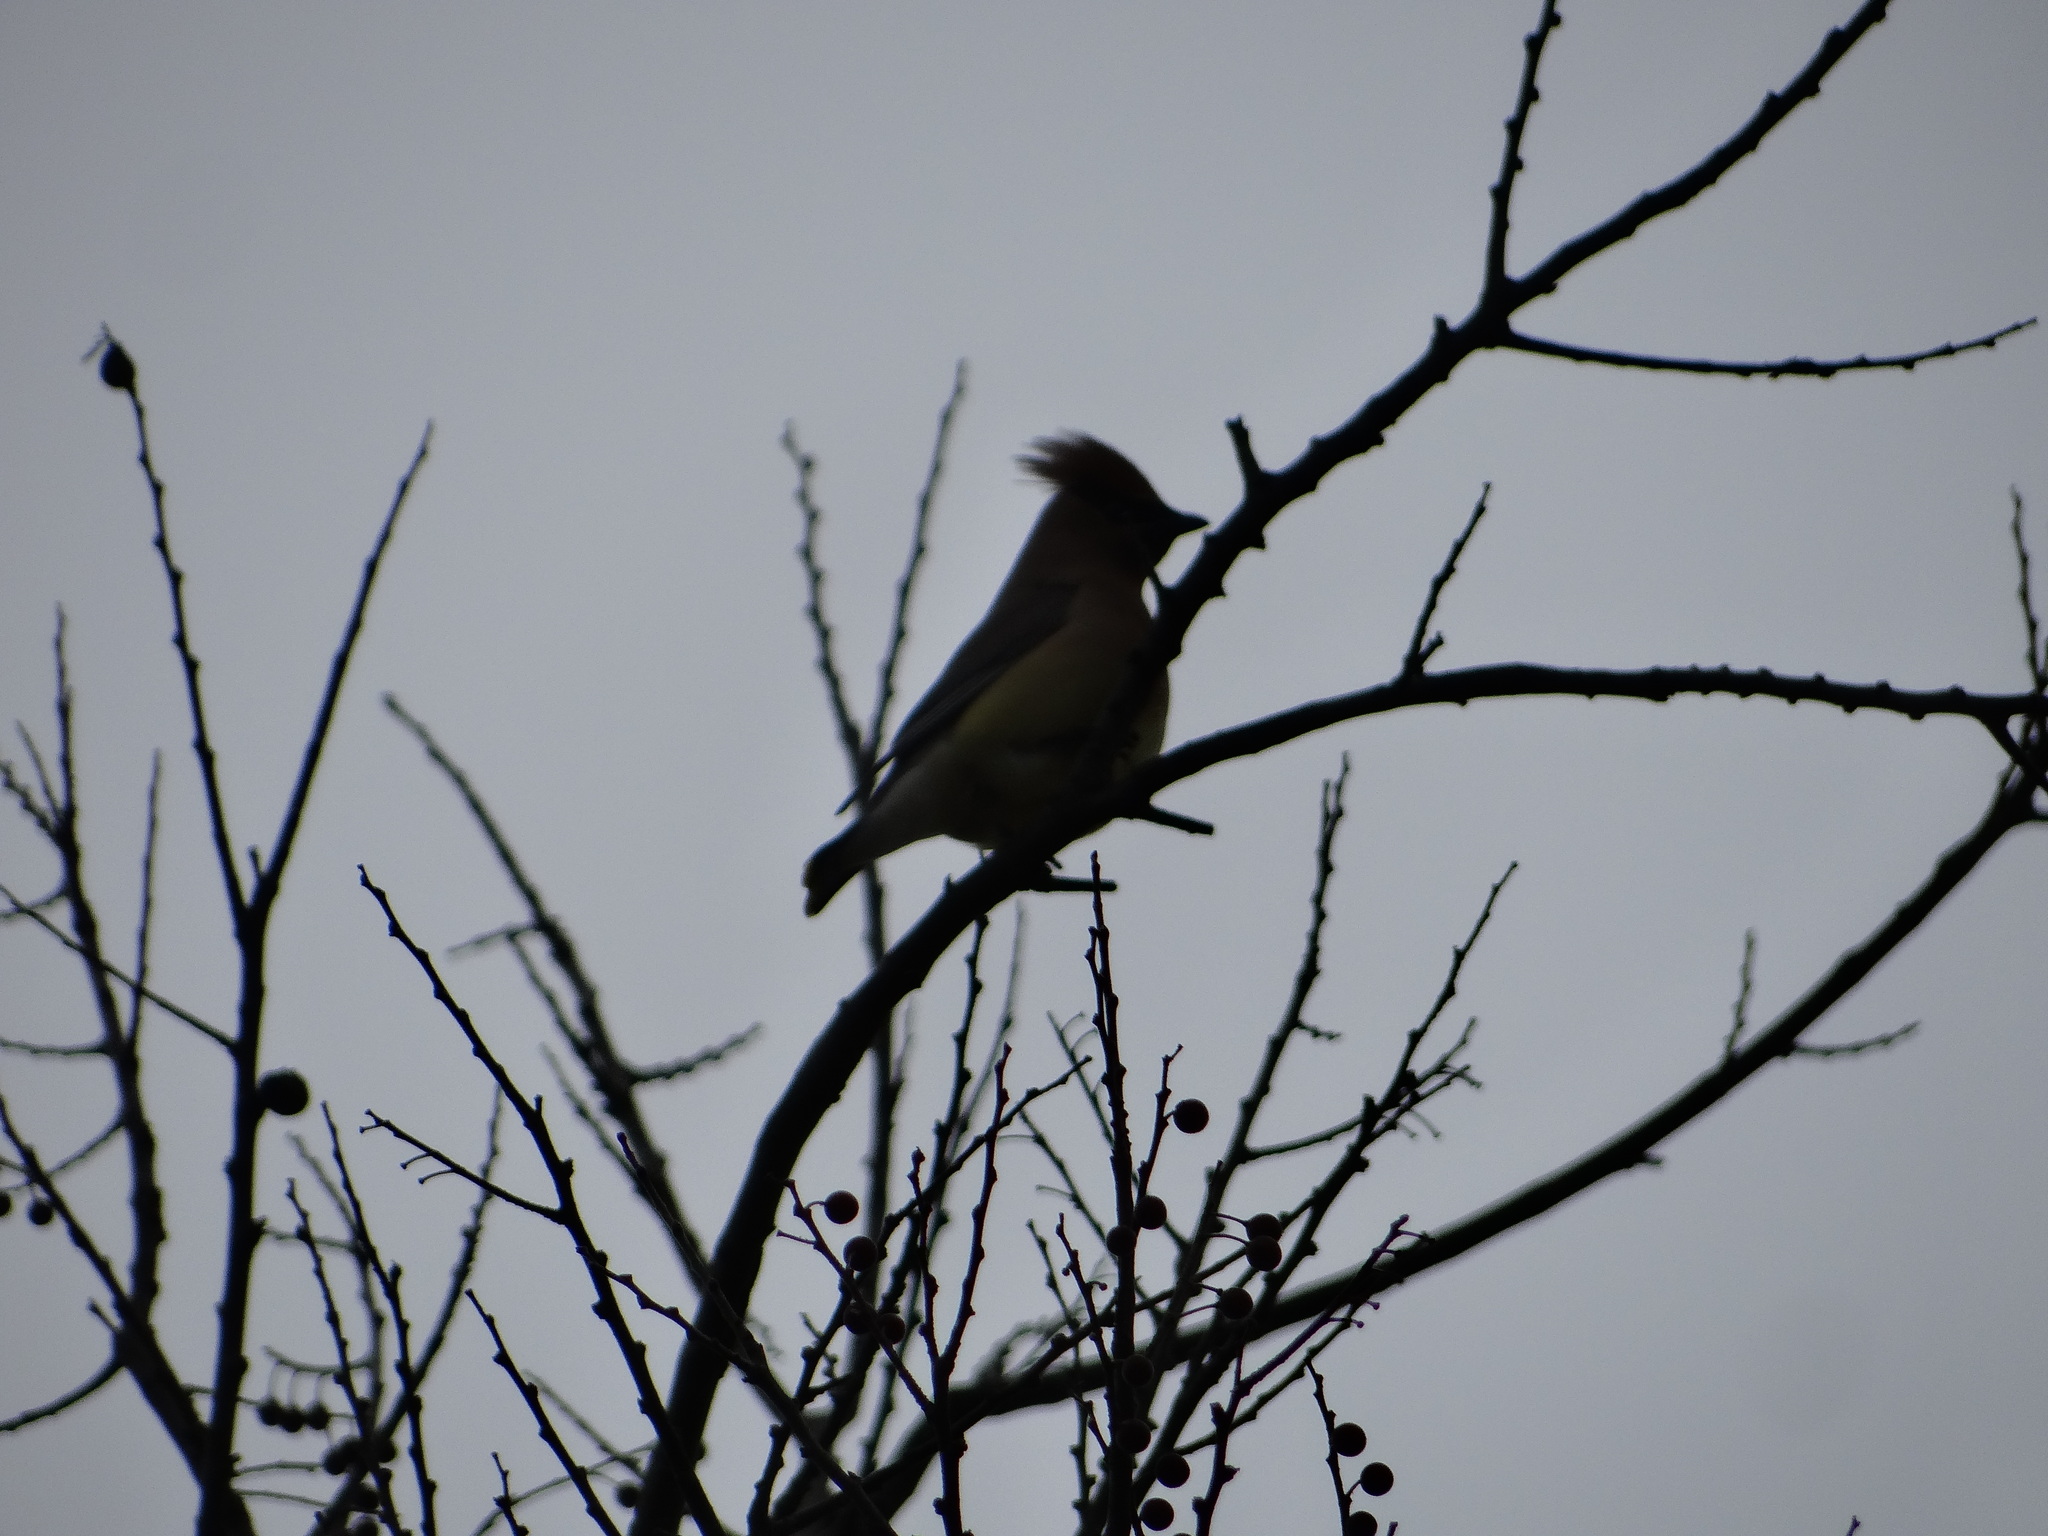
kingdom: Animalia
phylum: Chordata
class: Aves
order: Passeriformes
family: Bombycillidae
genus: Bombycilla
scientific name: Bombycilla cedrorum
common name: Cedar waxwing
